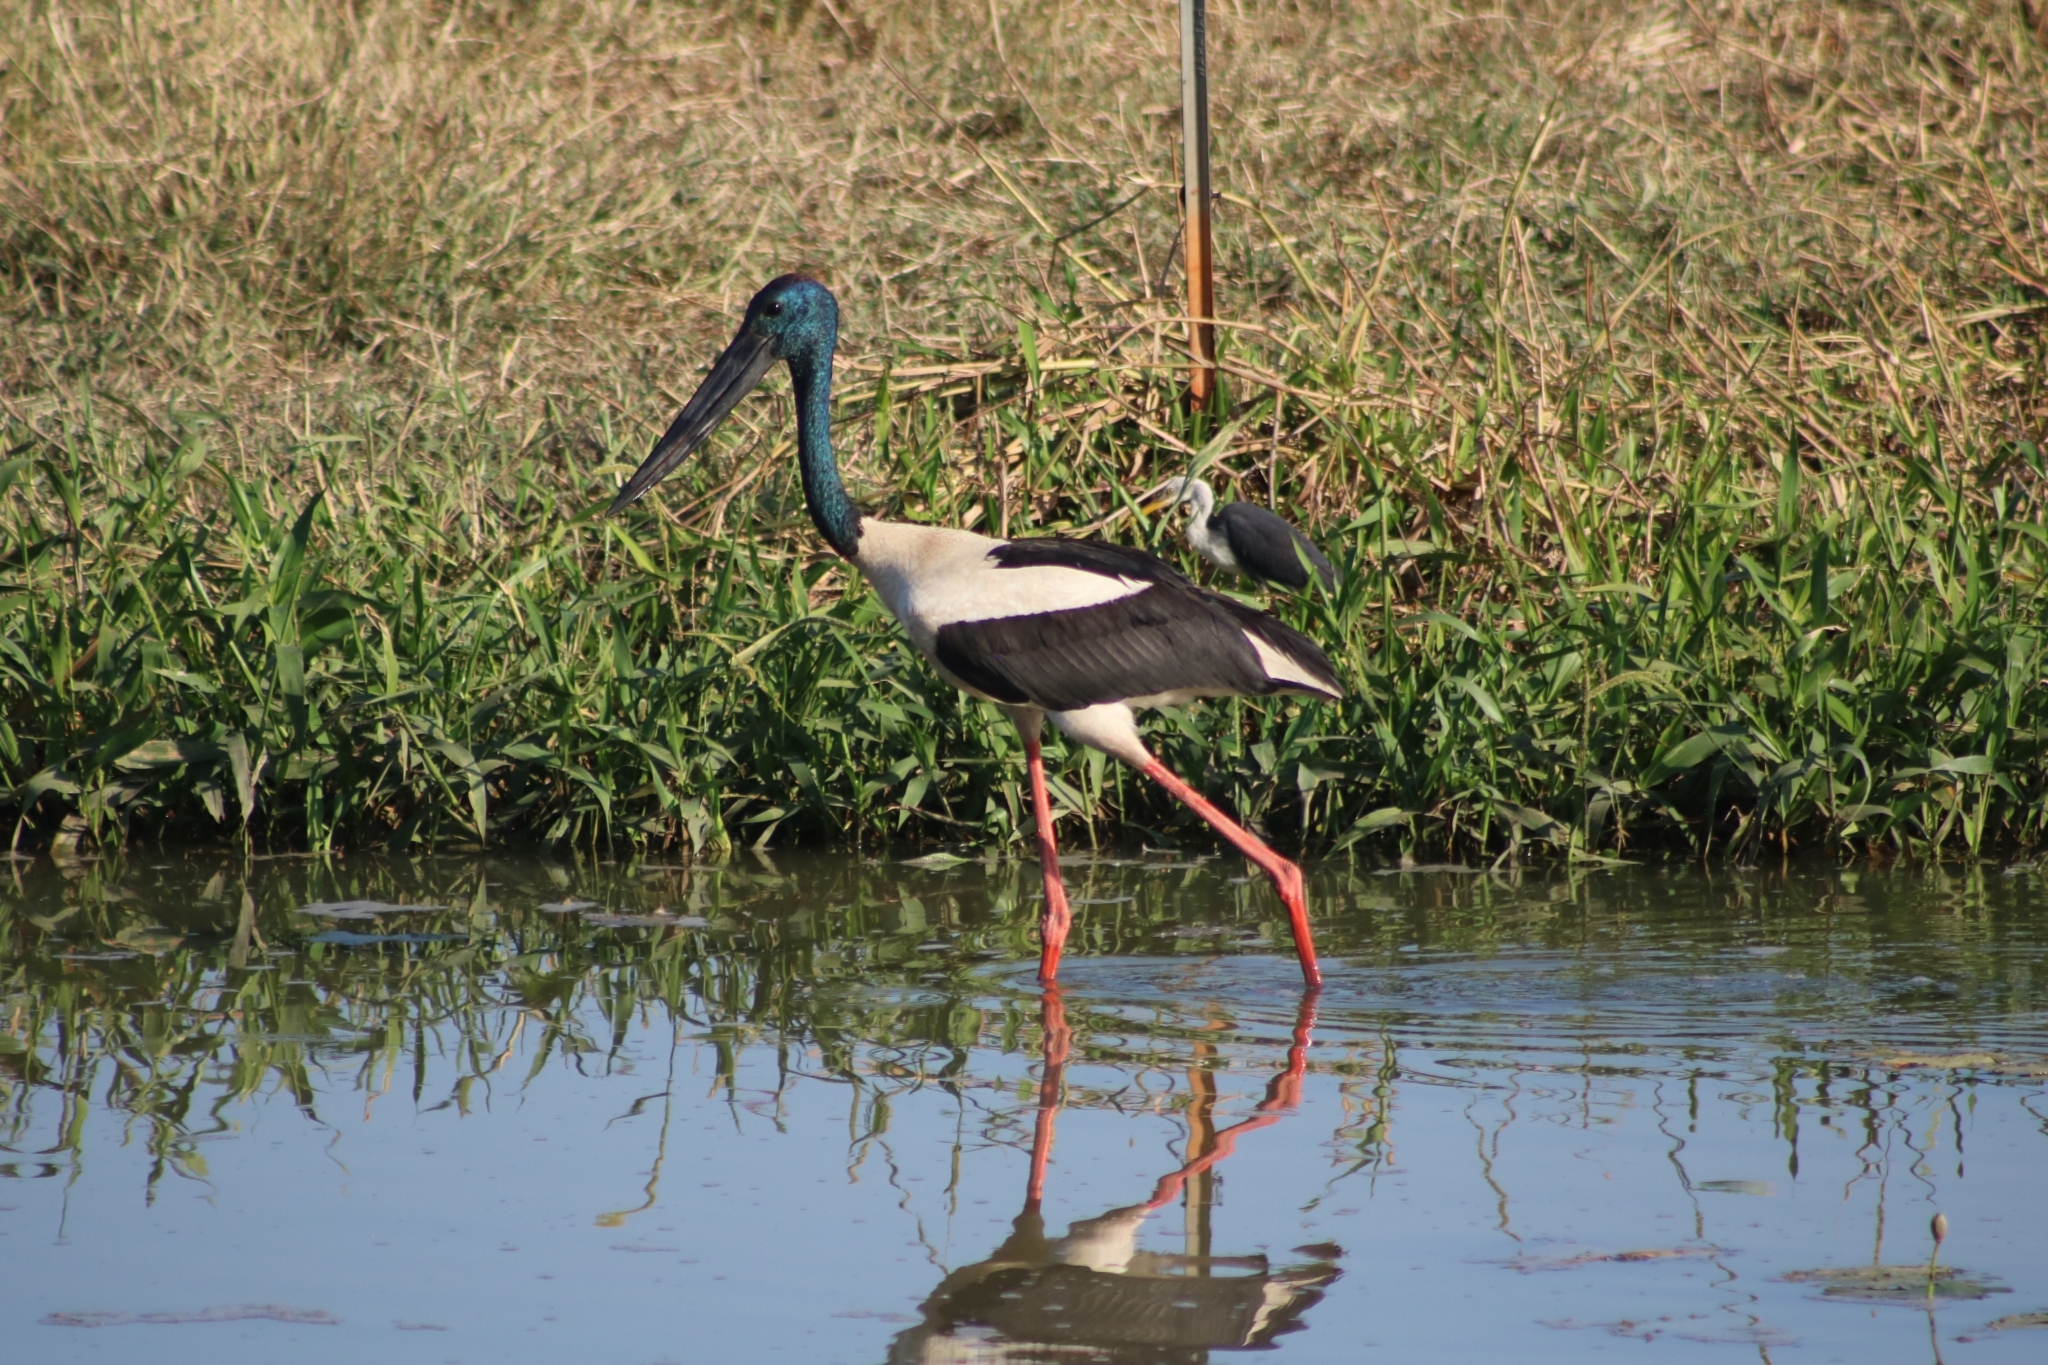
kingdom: Animalia
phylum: Chordata
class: Aves
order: Ciconiiformes
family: Ciconiidae
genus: Ephippiorhynchus
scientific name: Ephippiorhynchus asiaticus
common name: Black-necked stork
